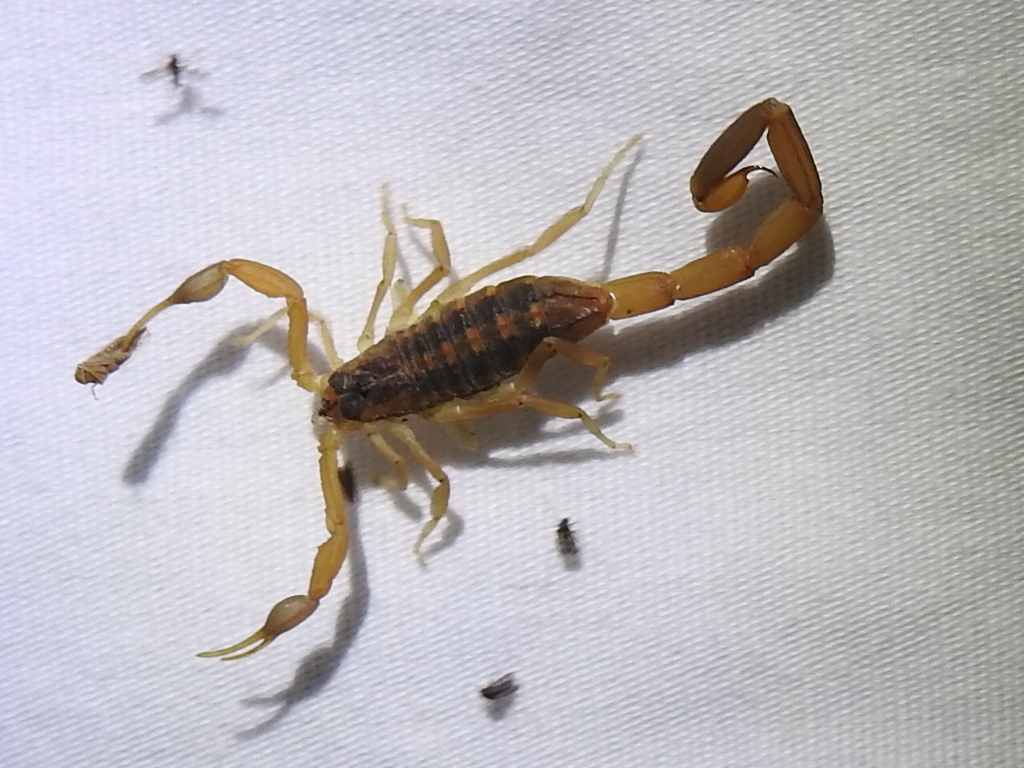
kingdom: Animalia
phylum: Arthropoda
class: Arachnida
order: Scorpiones
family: Buthidae
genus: Centruroides
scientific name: Centruroides vittatus
